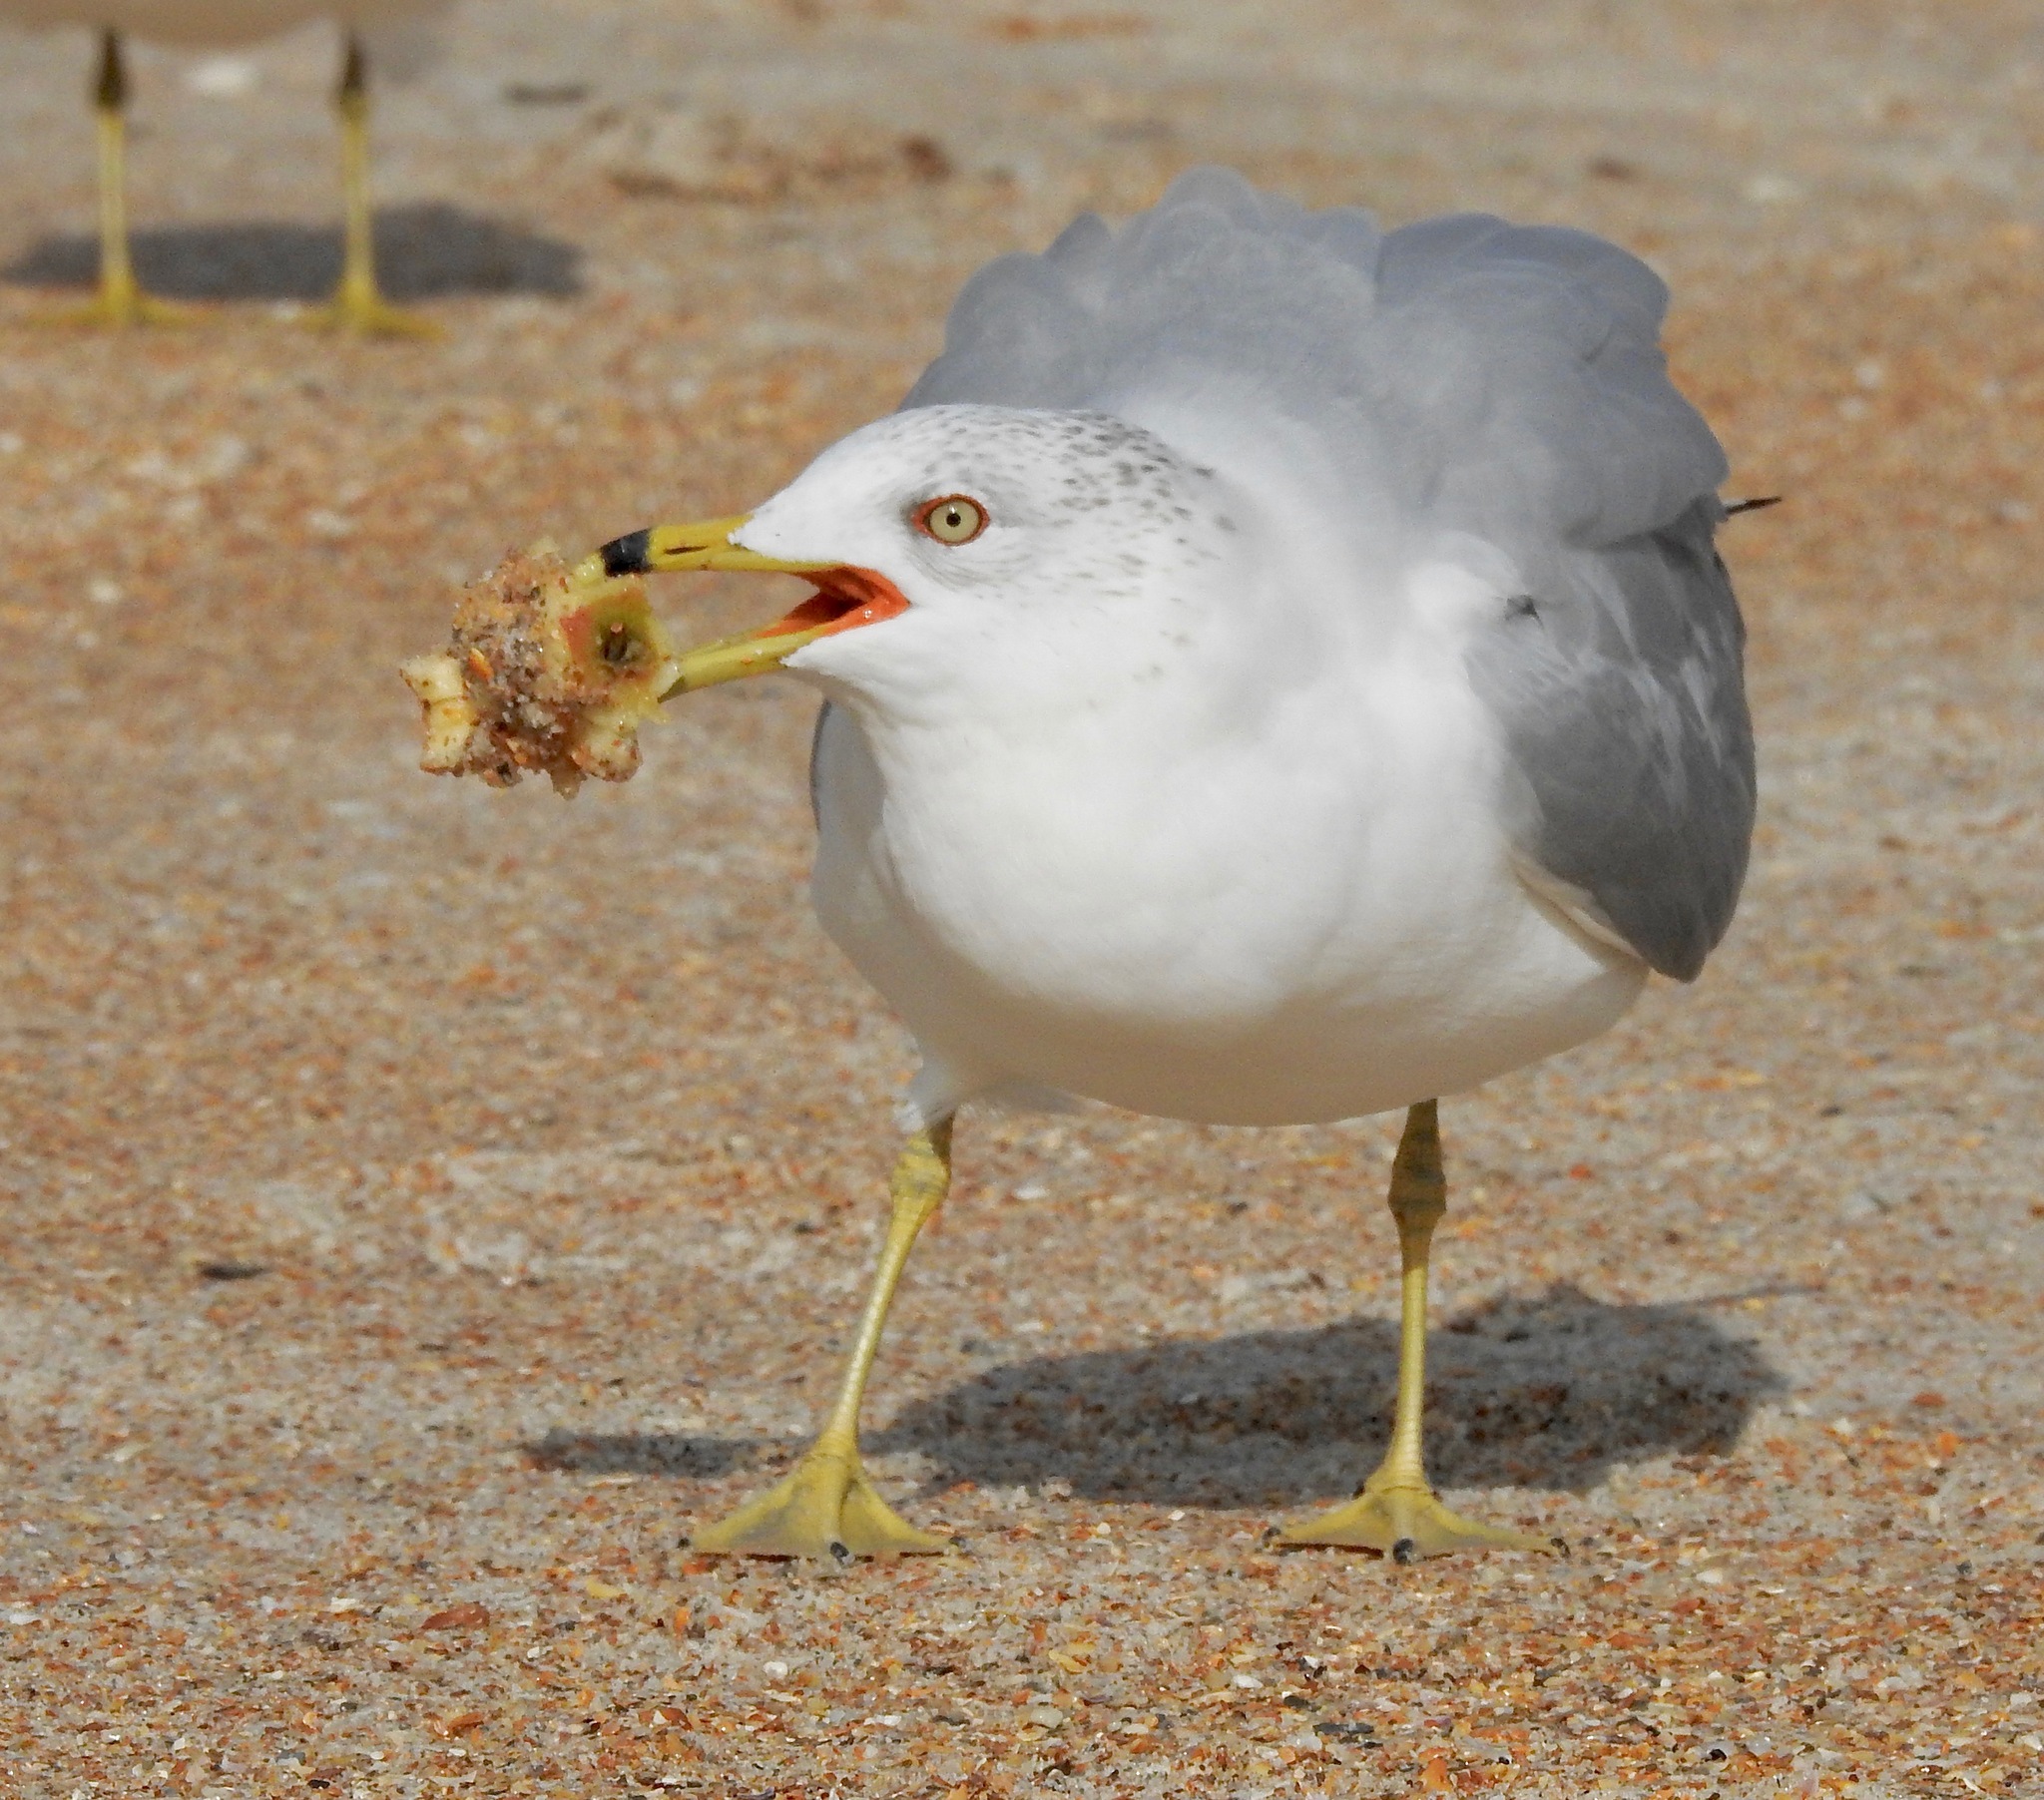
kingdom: Animalia
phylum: Chordata
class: Aves
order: Charadriiformes
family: Laridae
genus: Larus
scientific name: Larus delawarensis
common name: Ring-billed gull
